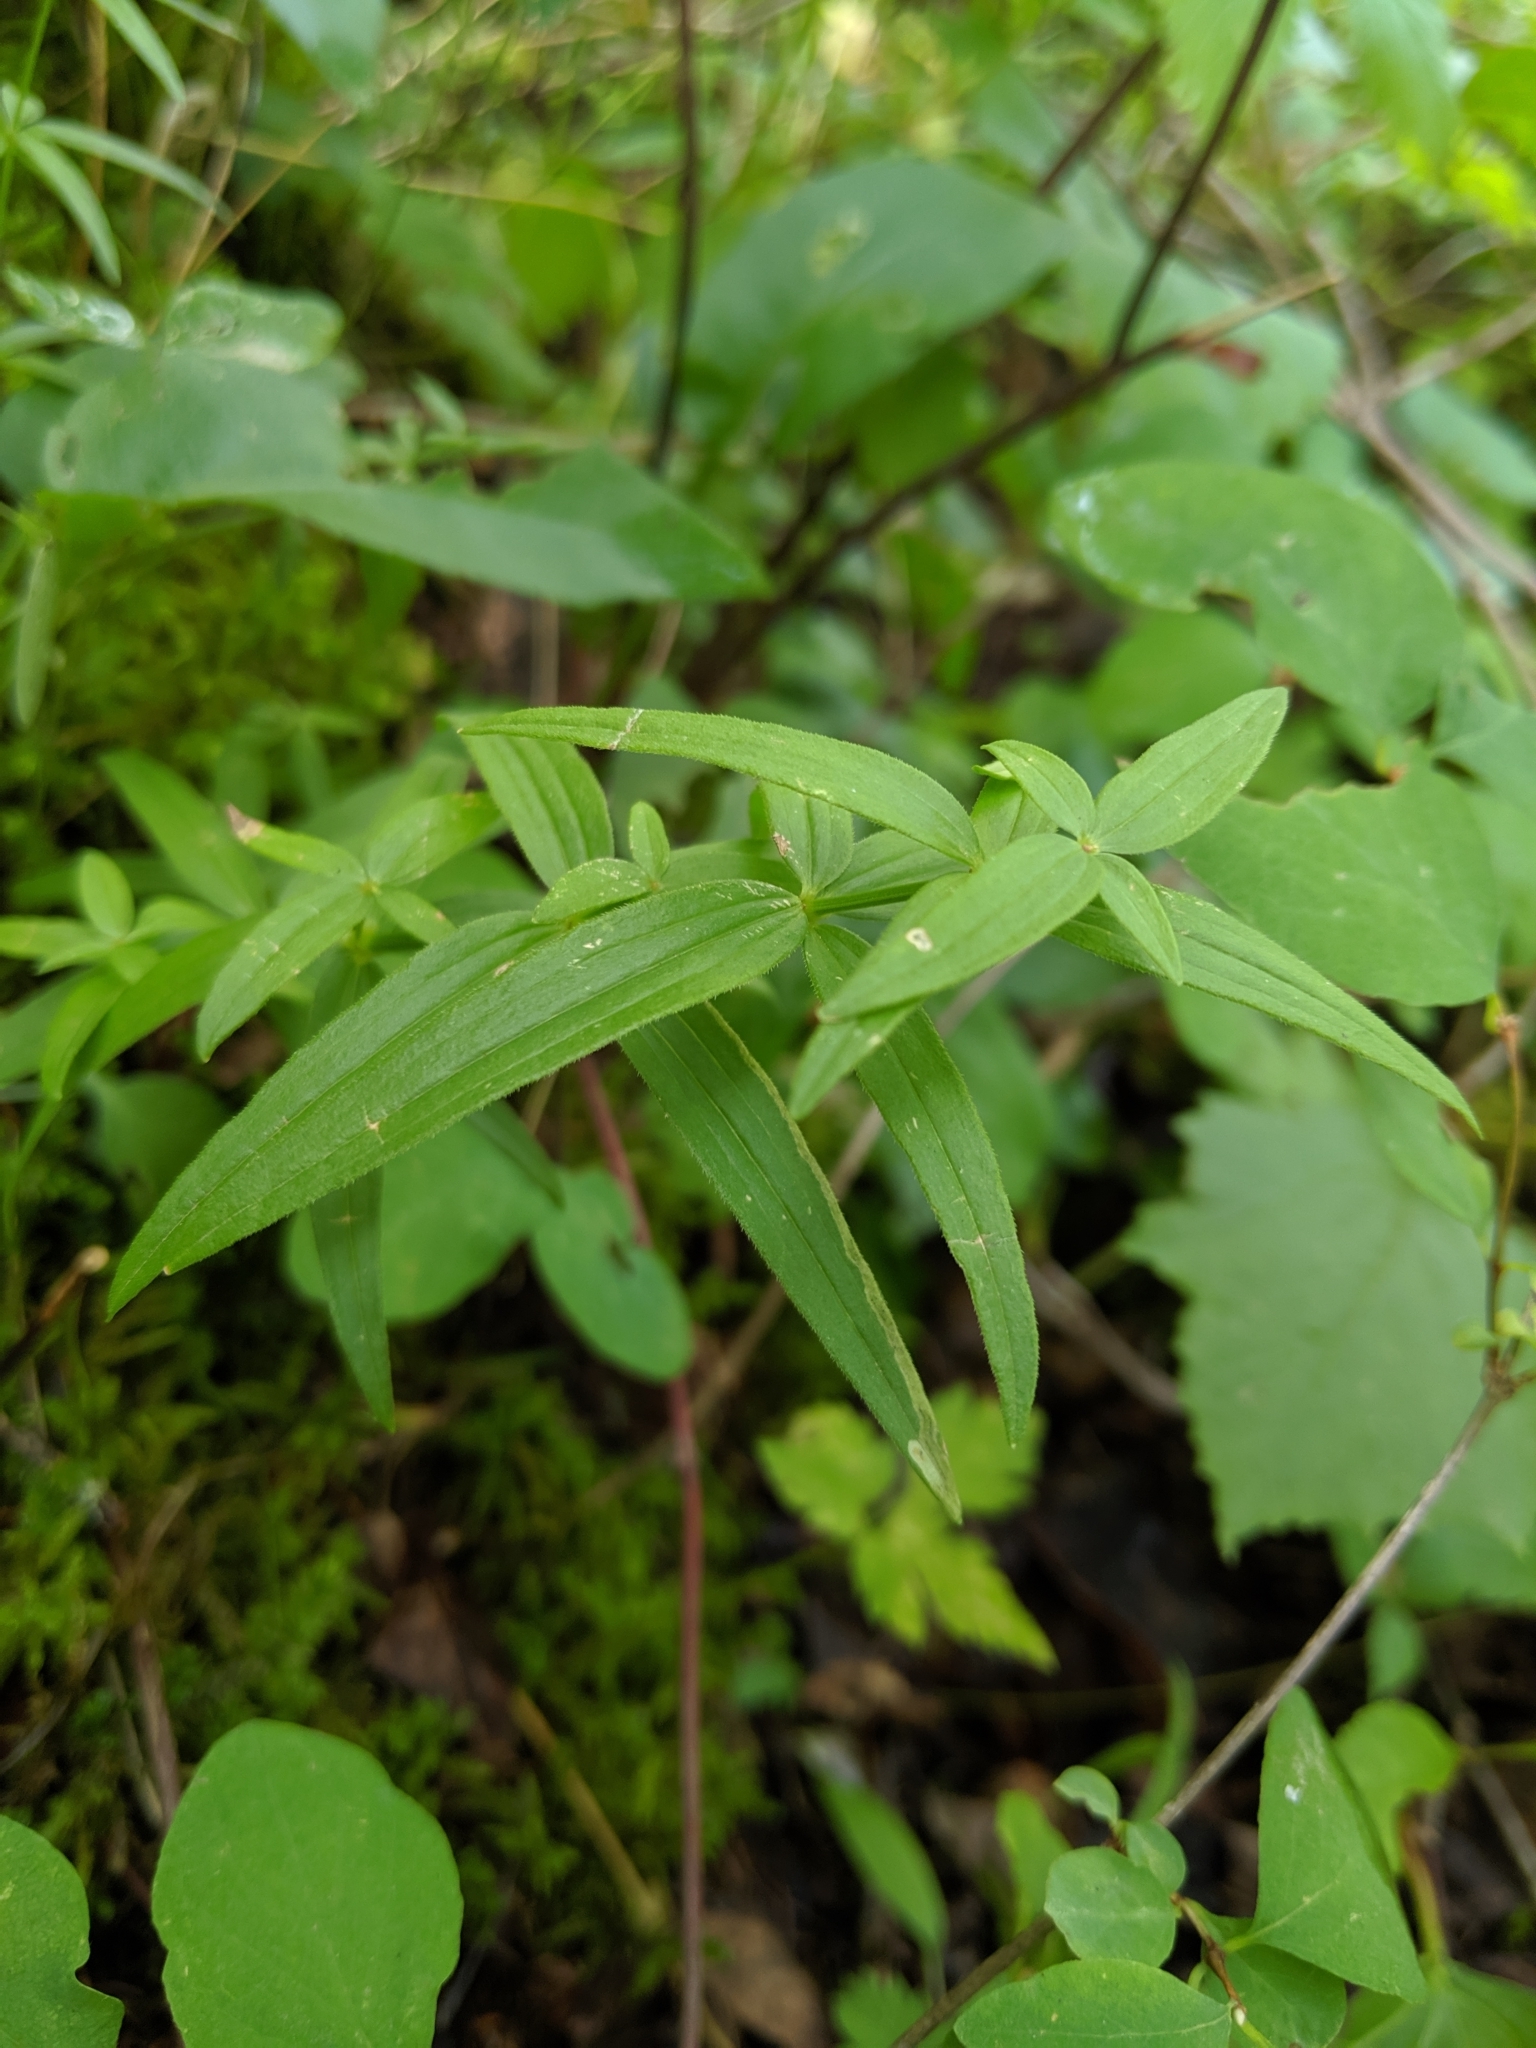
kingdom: Plantae
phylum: Tracheophyta
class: Magnoliopsida
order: Gentianales
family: Rubiaceae
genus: Galium
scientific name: Galium boreale
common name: Northern bedstraw
